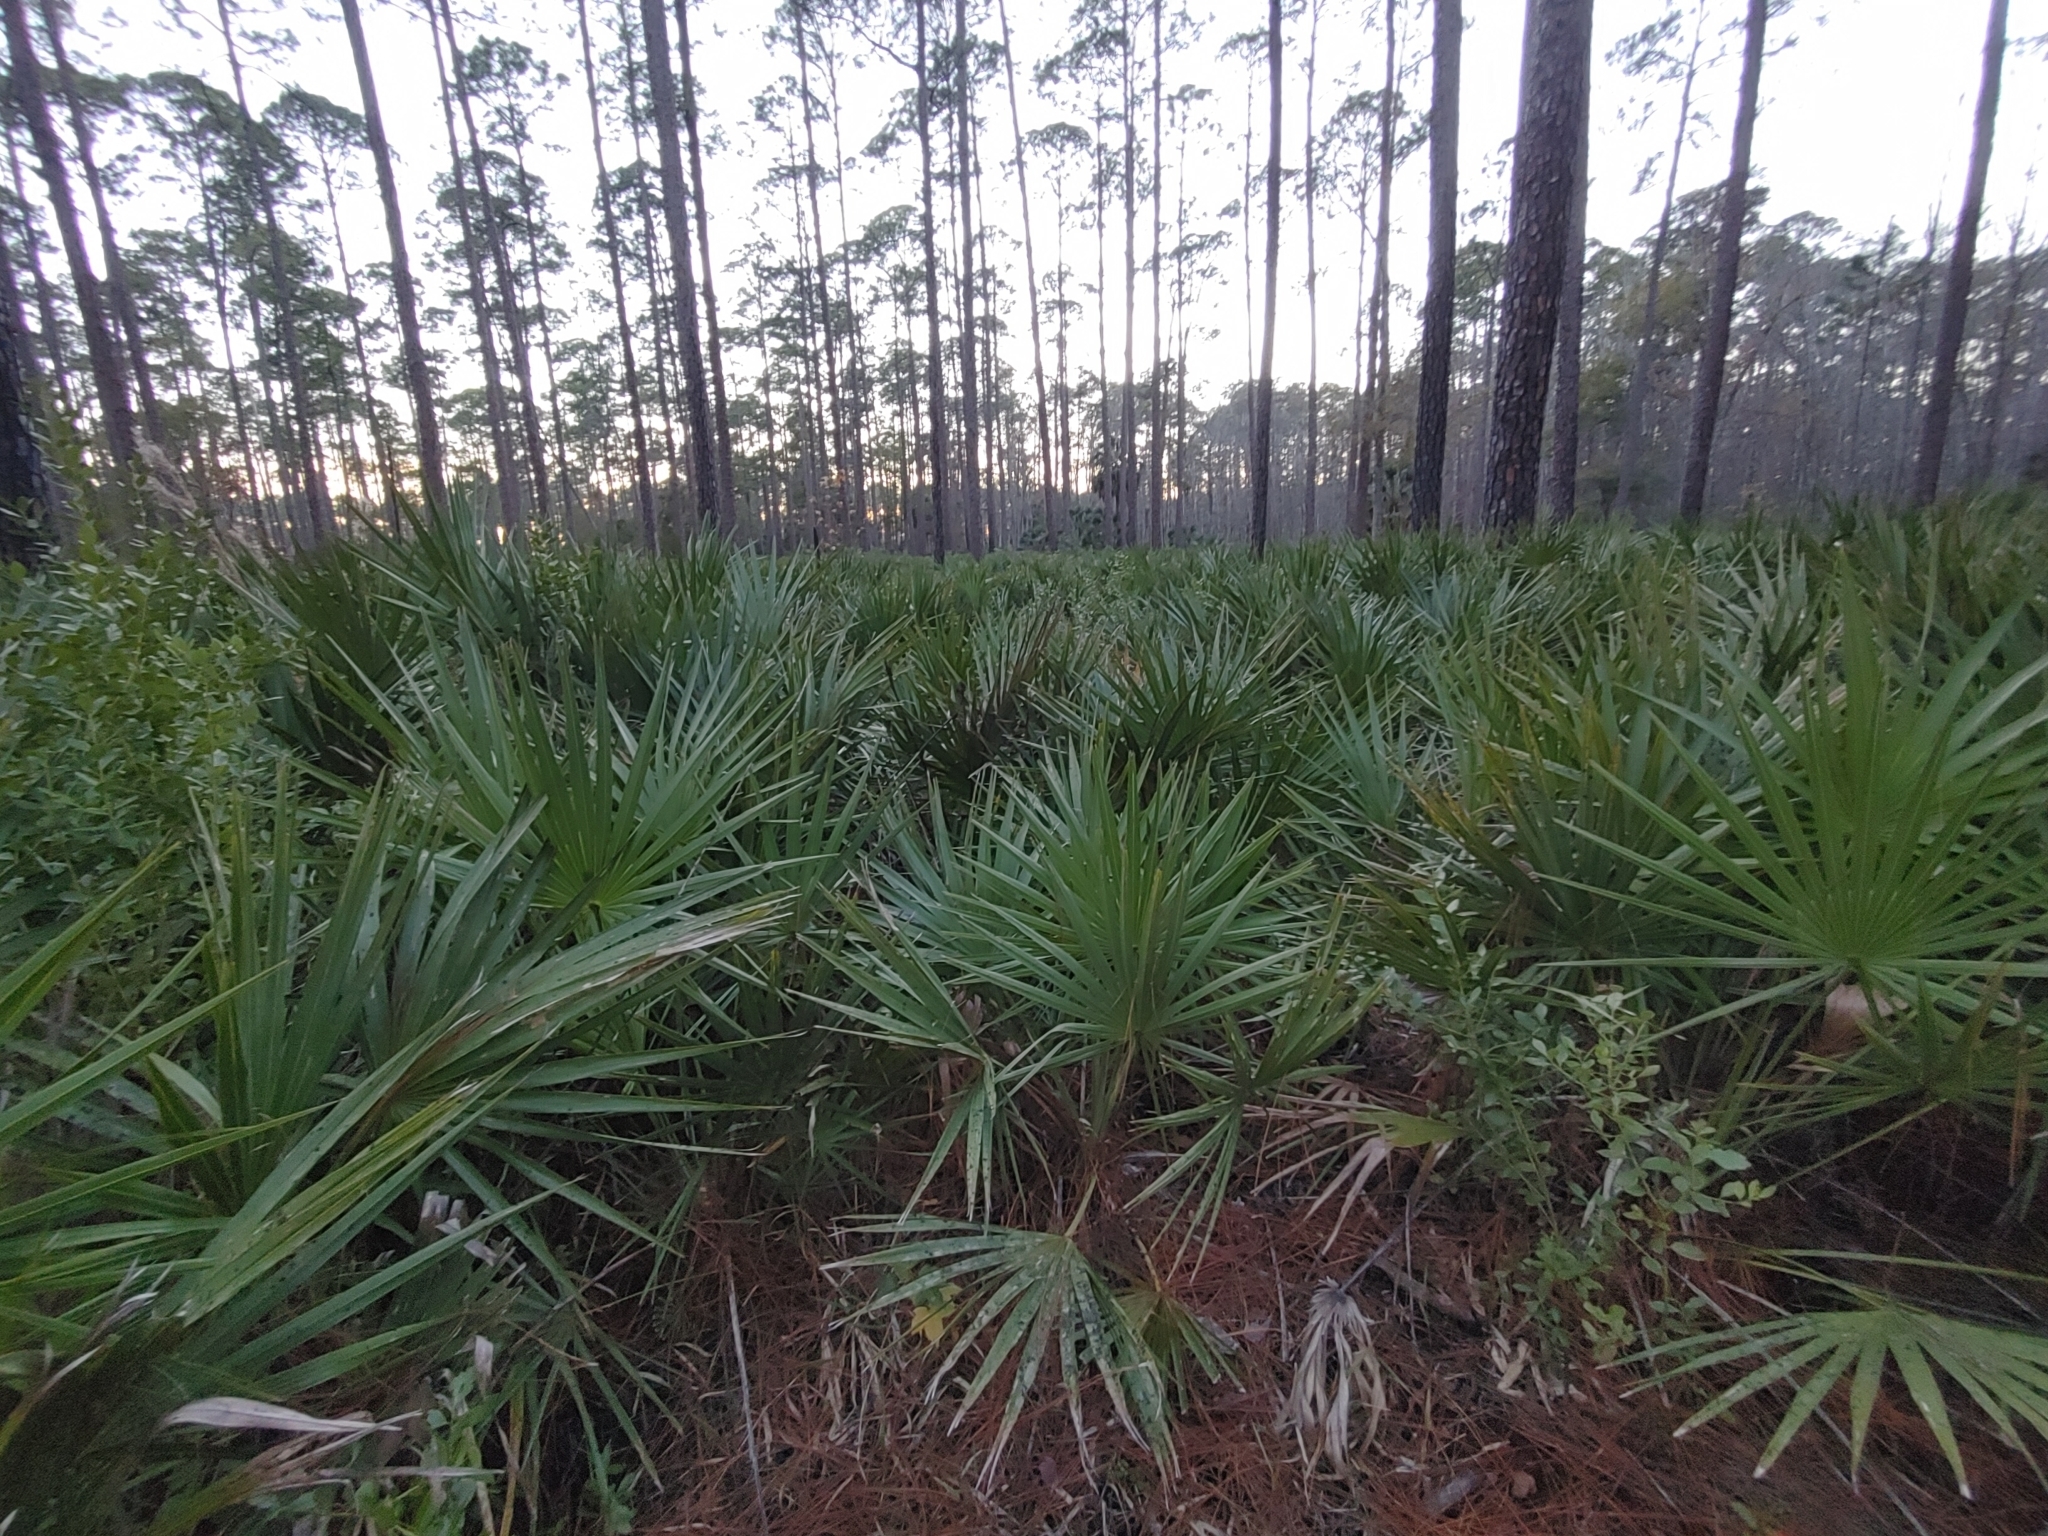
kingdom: Plantae
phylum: Tracheophyta
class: Liliopsida
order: Arecales
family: Arecaceae
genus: Serenoa
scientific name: Serenoa repens
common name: Saw-palmetto
